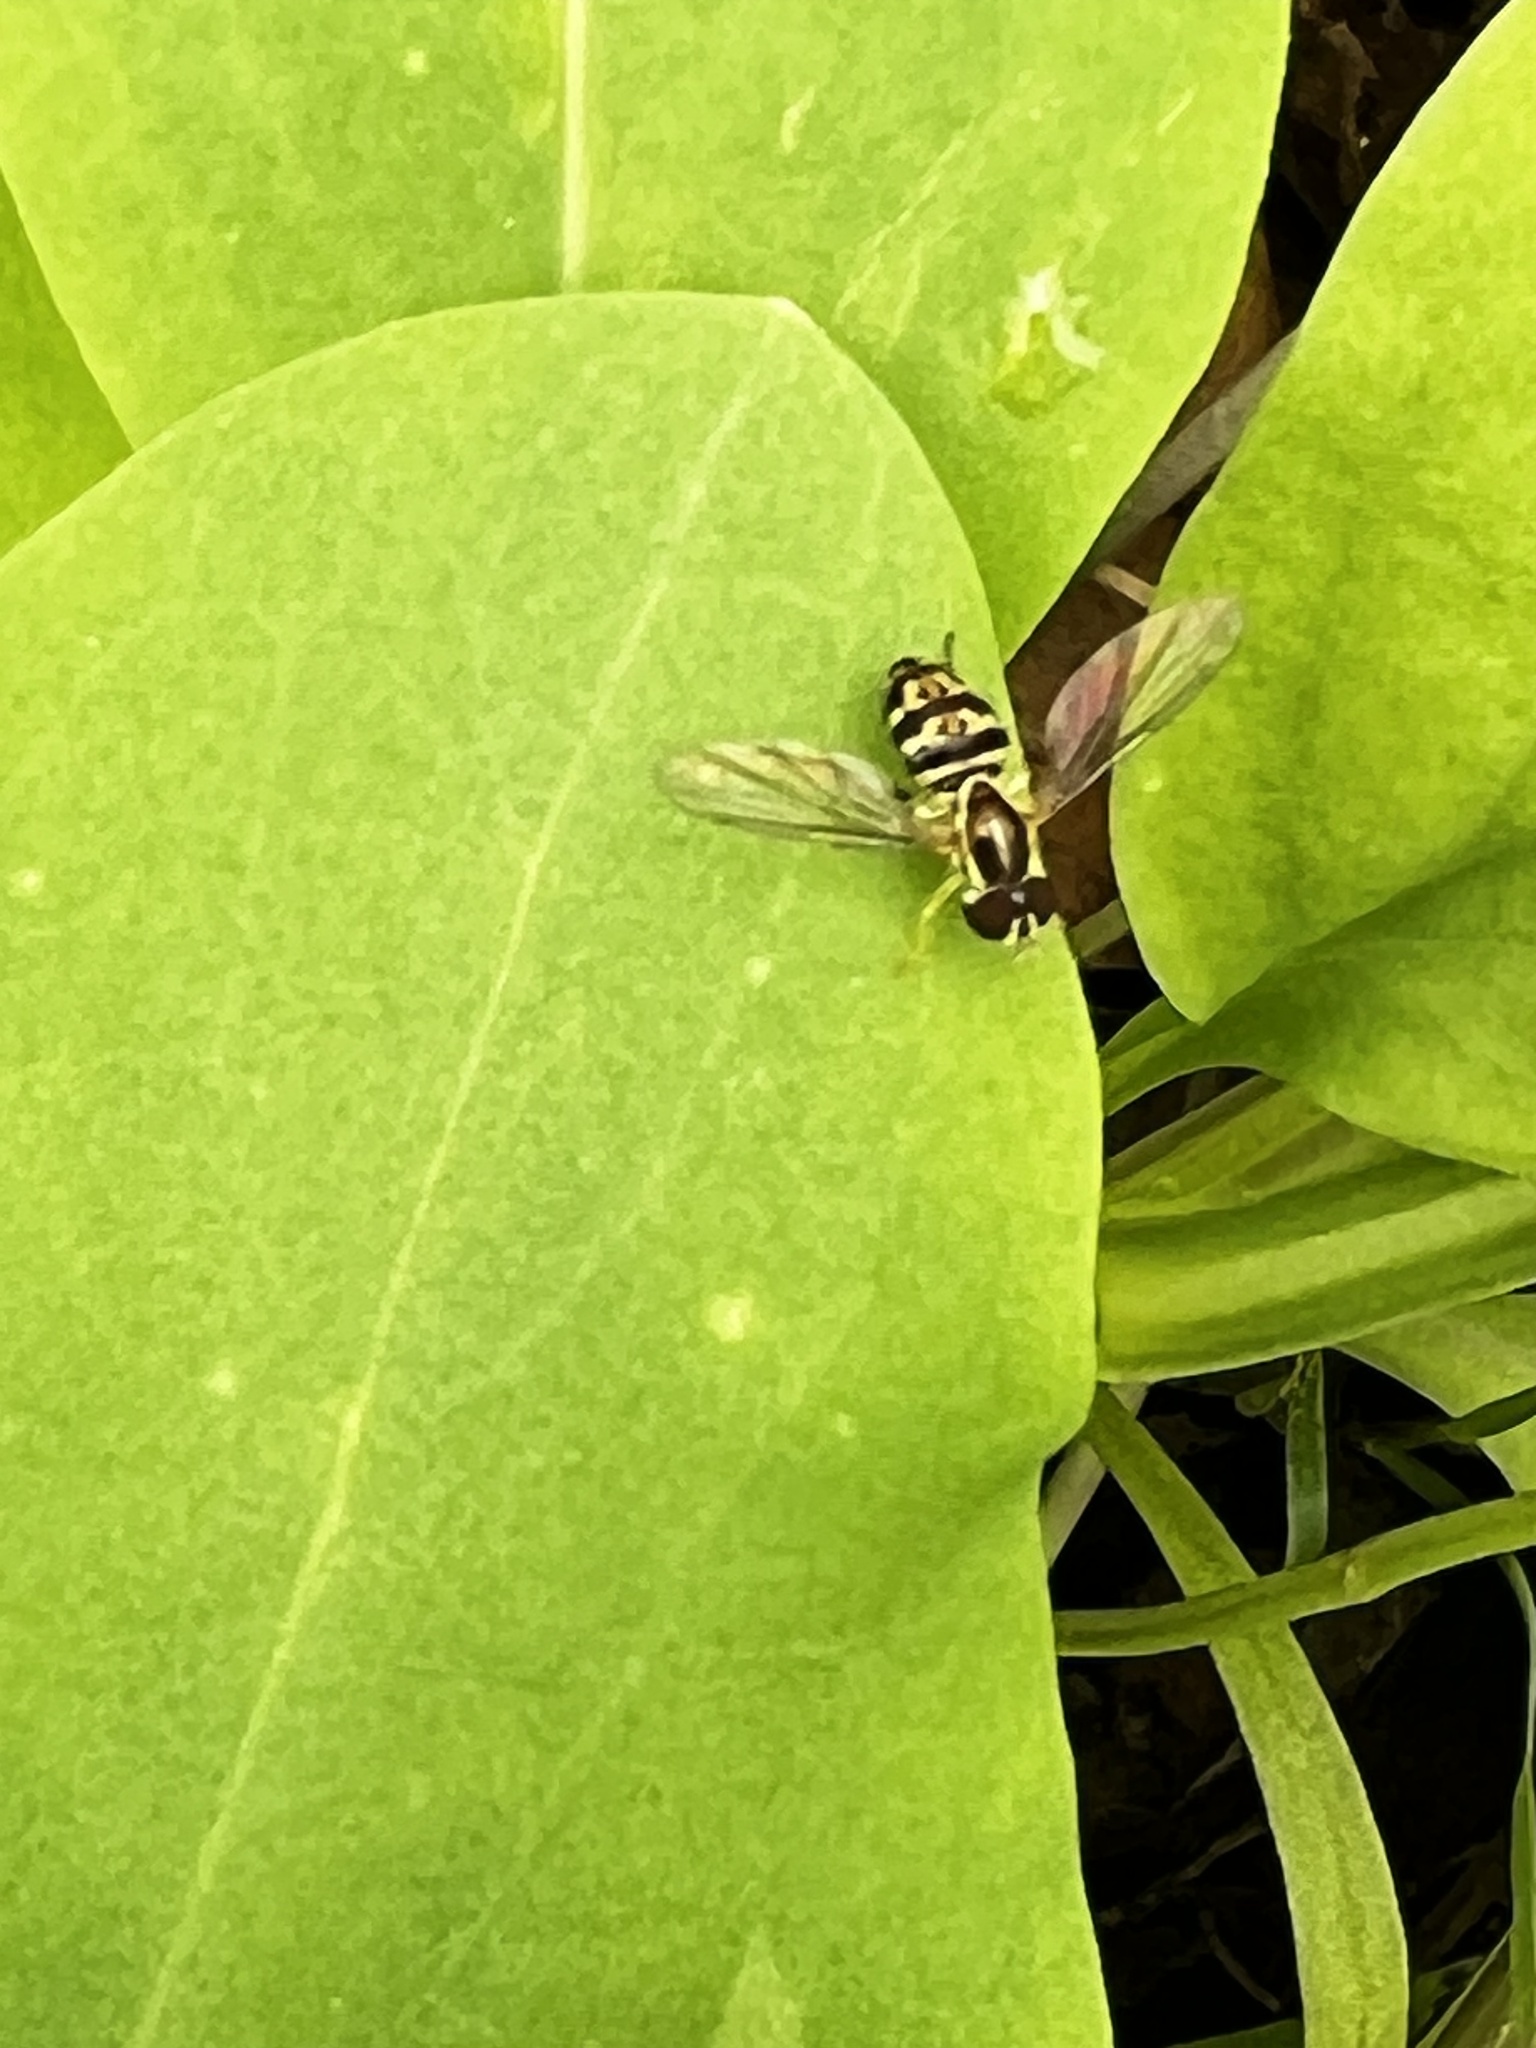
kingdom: Animalia
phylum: Arthropoda
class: Insecta
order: Diptera
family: Syrphidae
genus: Toxomerus
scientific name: Toxomerus geminatus
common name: Eastern calligrapher
